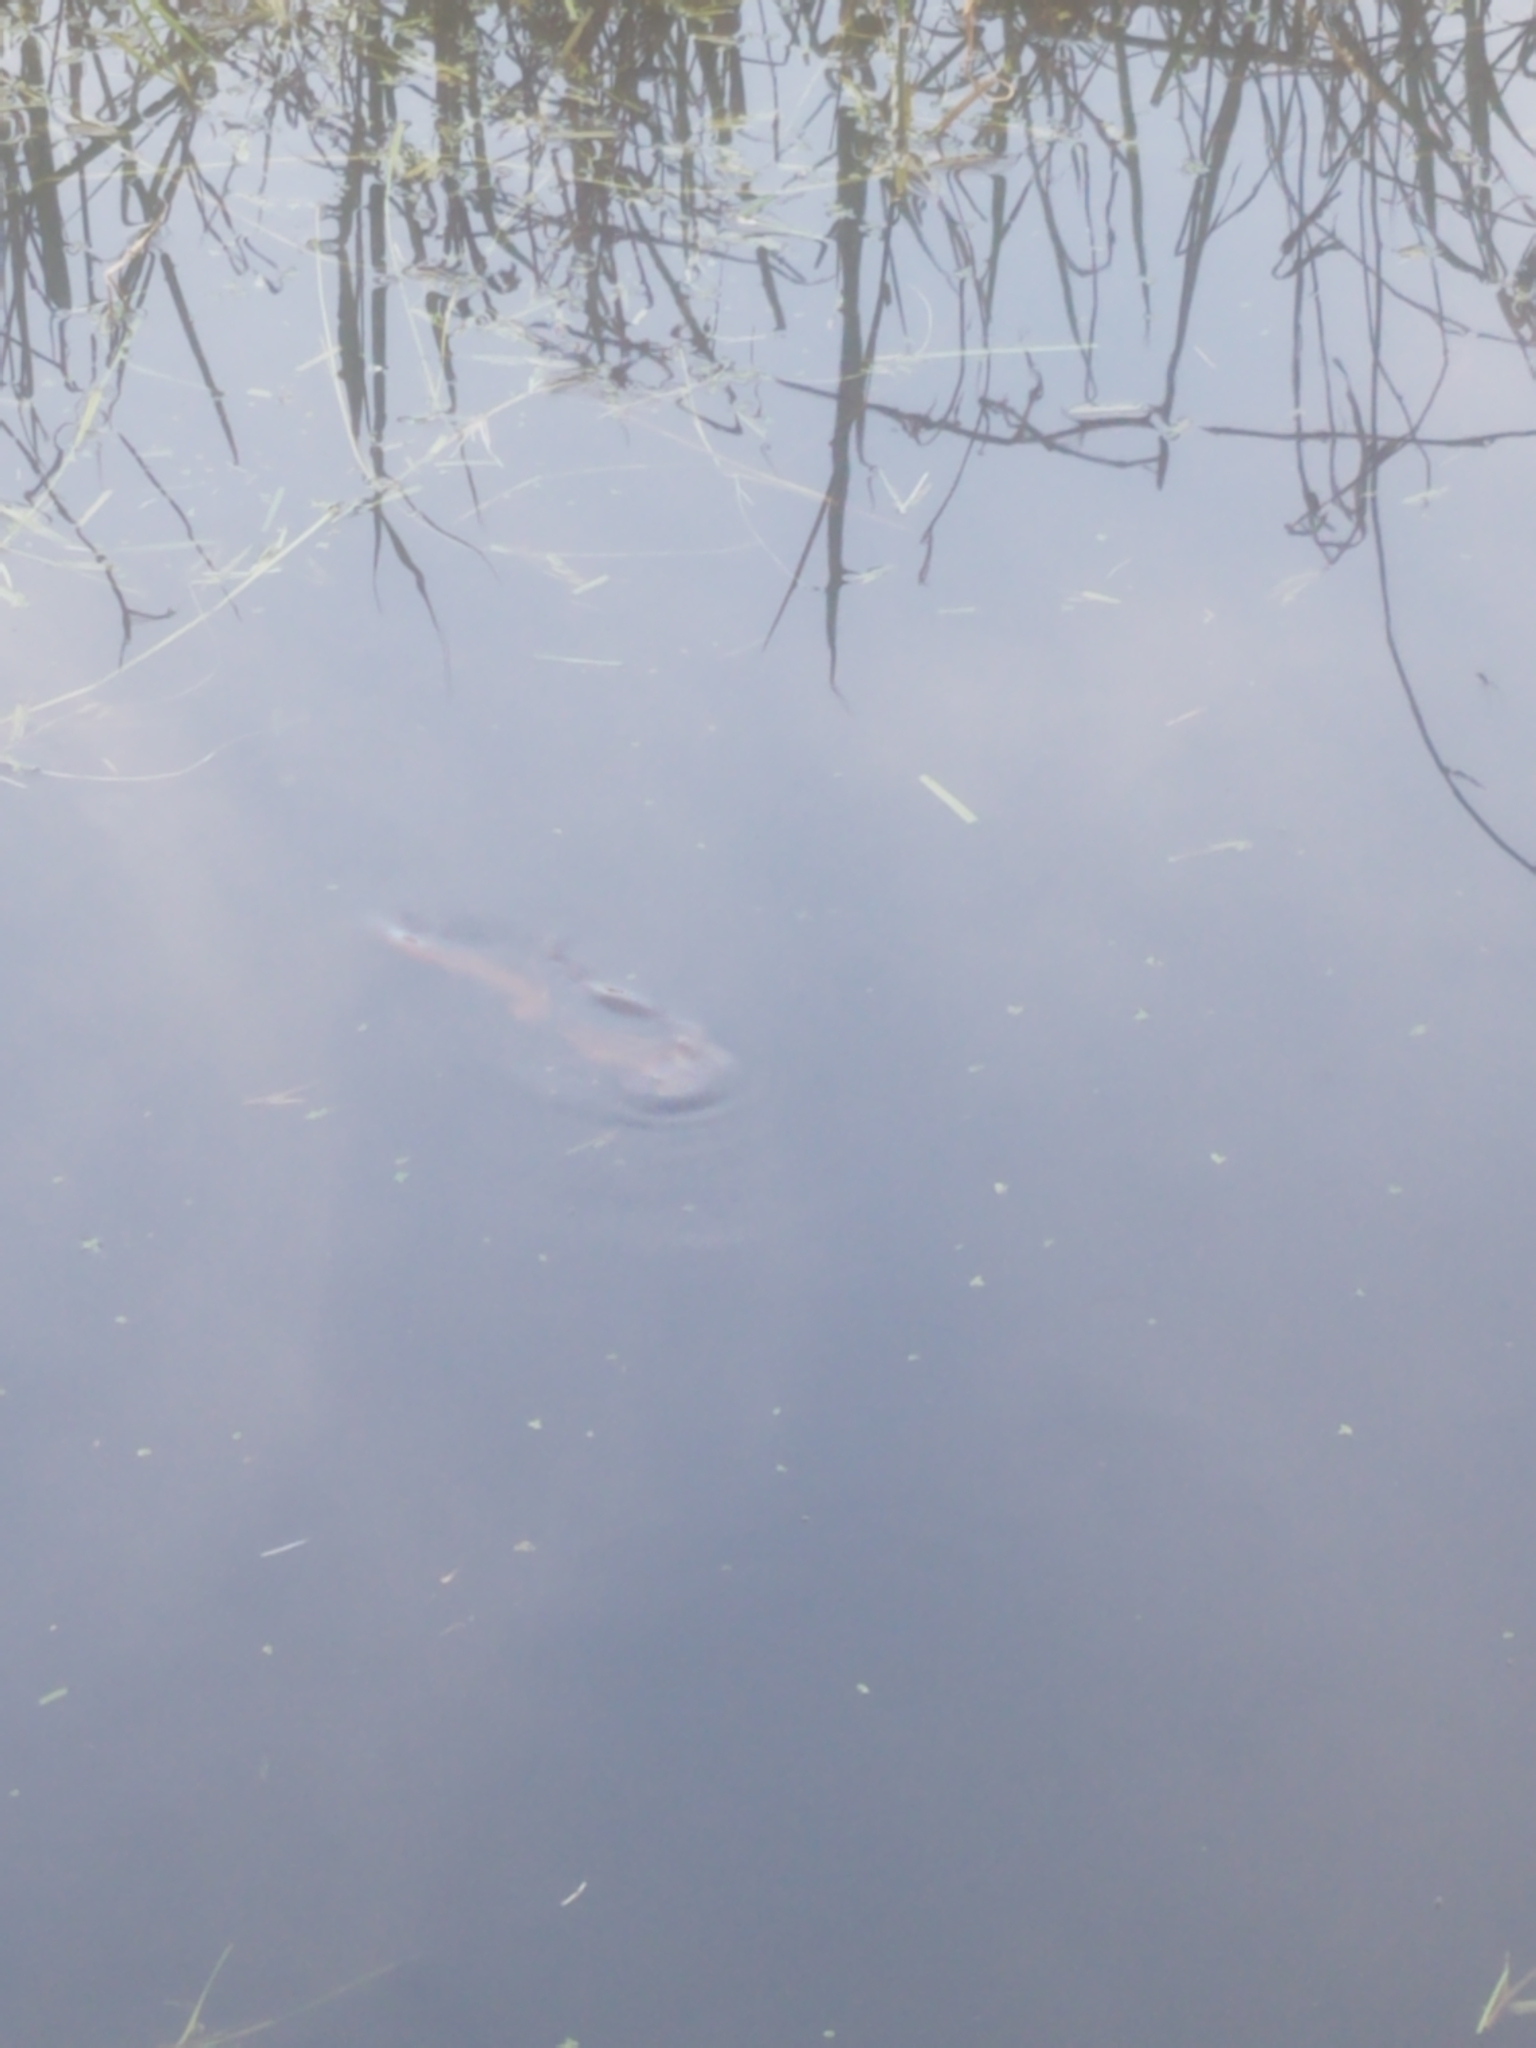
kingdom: Animalia
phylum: Chordata
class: Amphibia
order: Caudata
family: Salamandridae
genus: Taricha
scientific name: Taricha granulosa
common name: Roughskin newt
